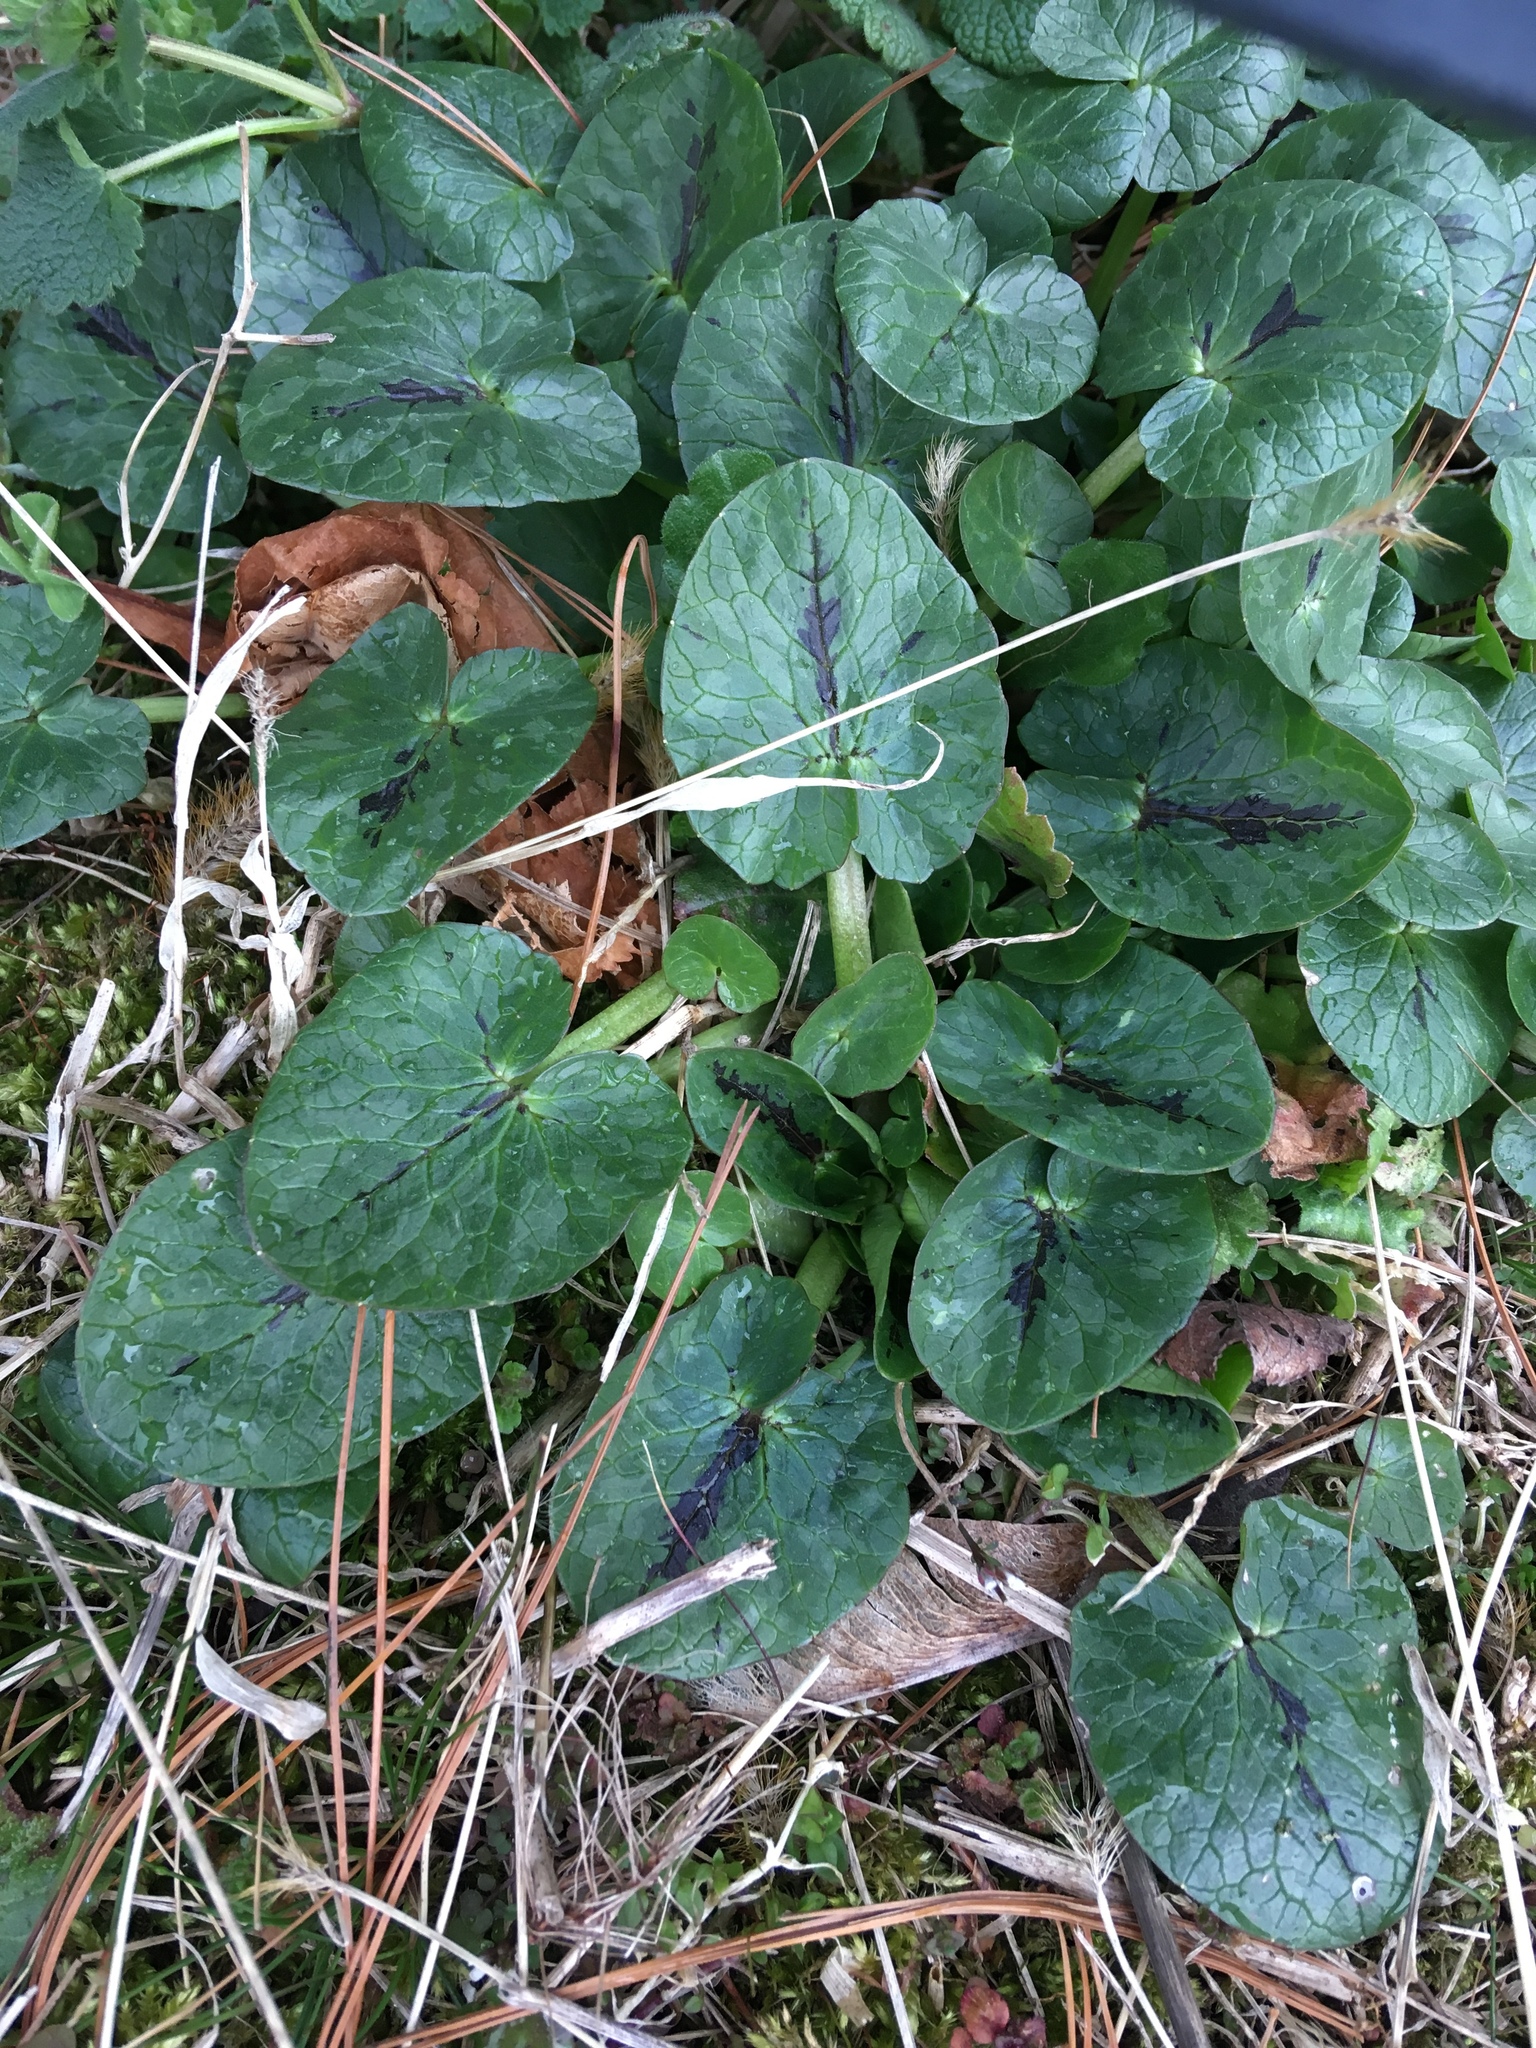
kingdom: Plantae
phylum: Tracheophyta
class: Magnoliopsida
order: Ranunculales
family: Ranunculaceae
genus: Ficaria
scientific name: Ficaria verna
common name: Lesser celandine
